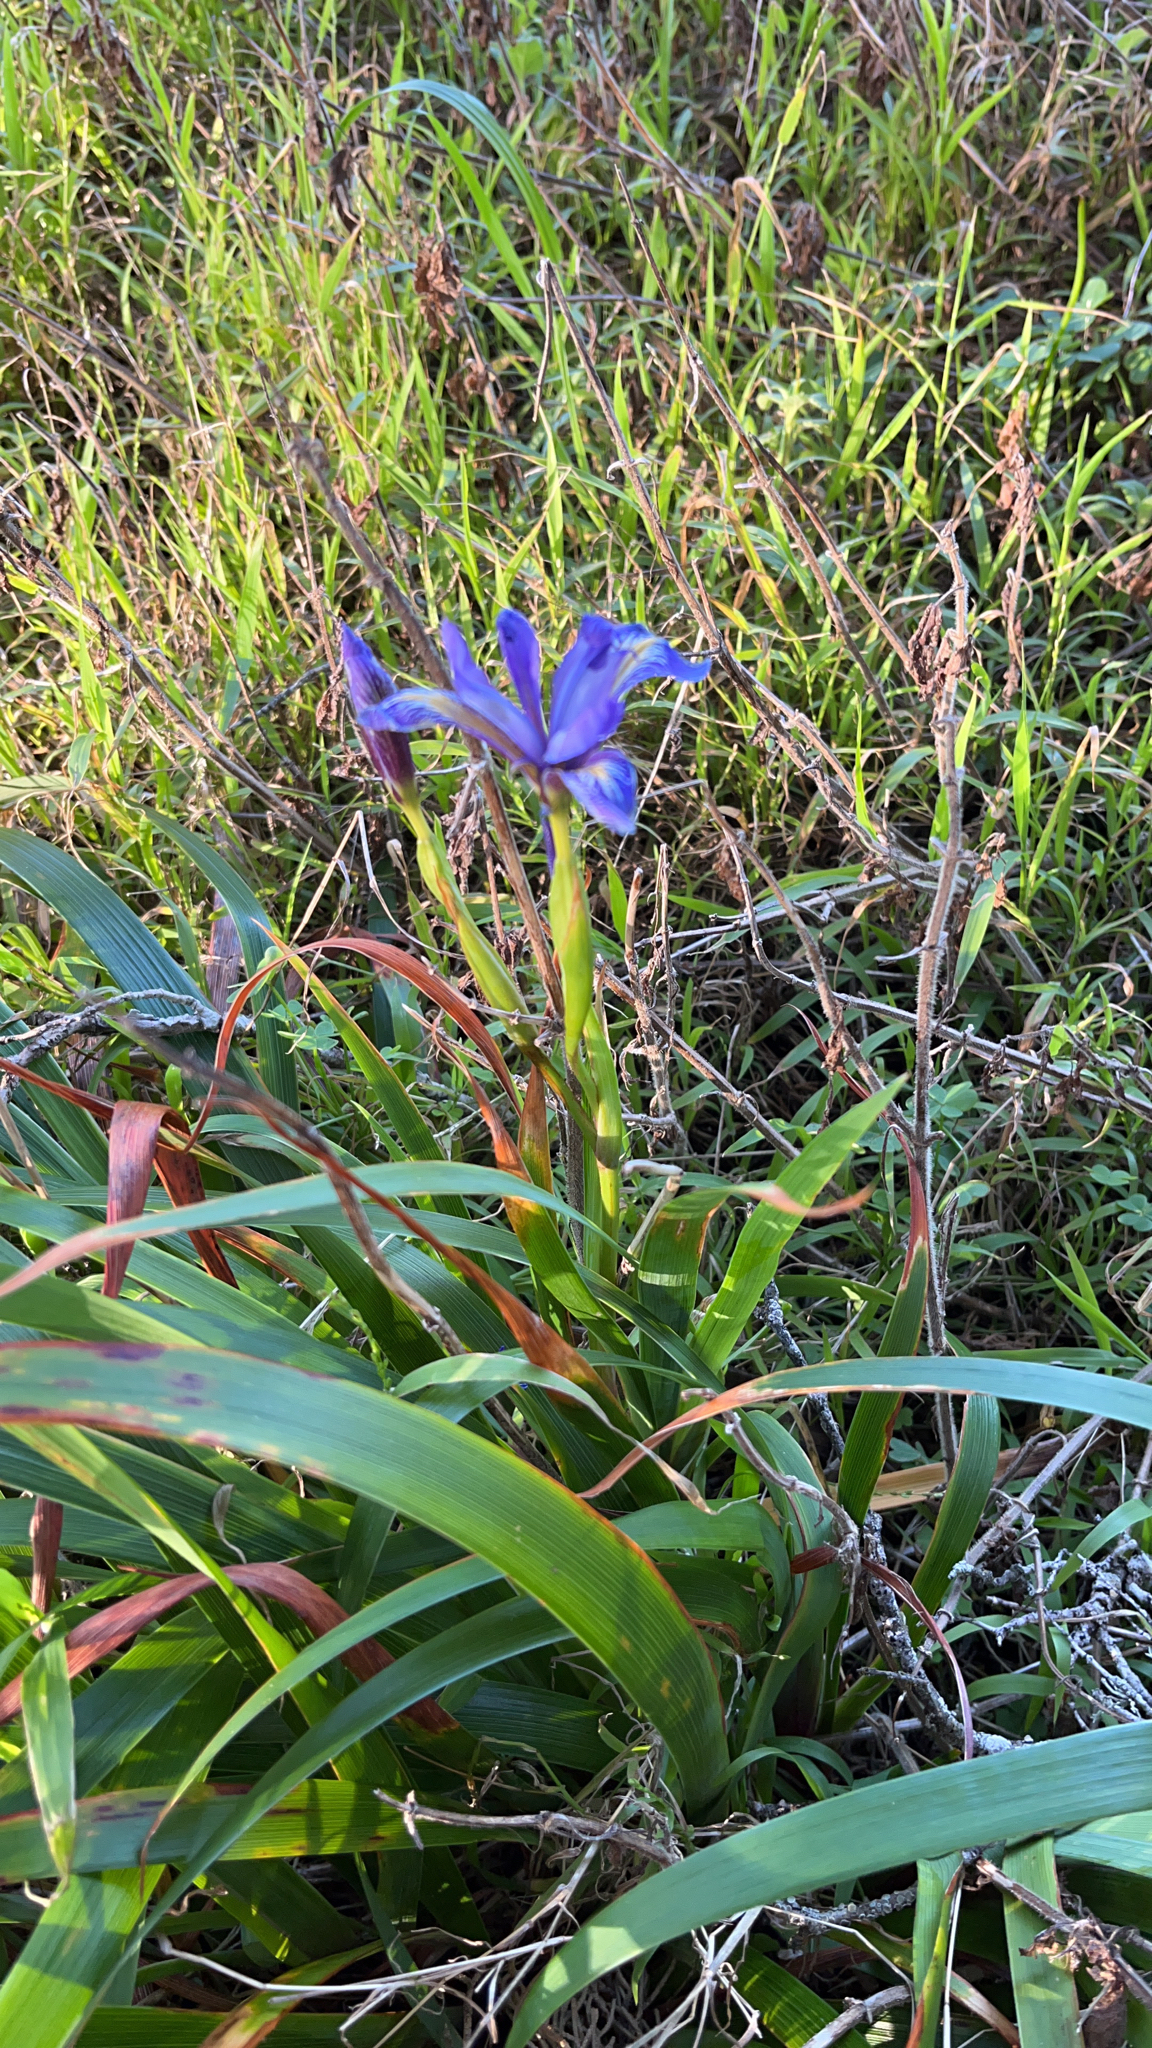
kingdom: Plantae
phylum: Tracheophyta
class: Liliopsida
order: Asparagales
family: Iridaceae
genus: Iris
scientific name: Iris douglasiana
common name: Marin iris
